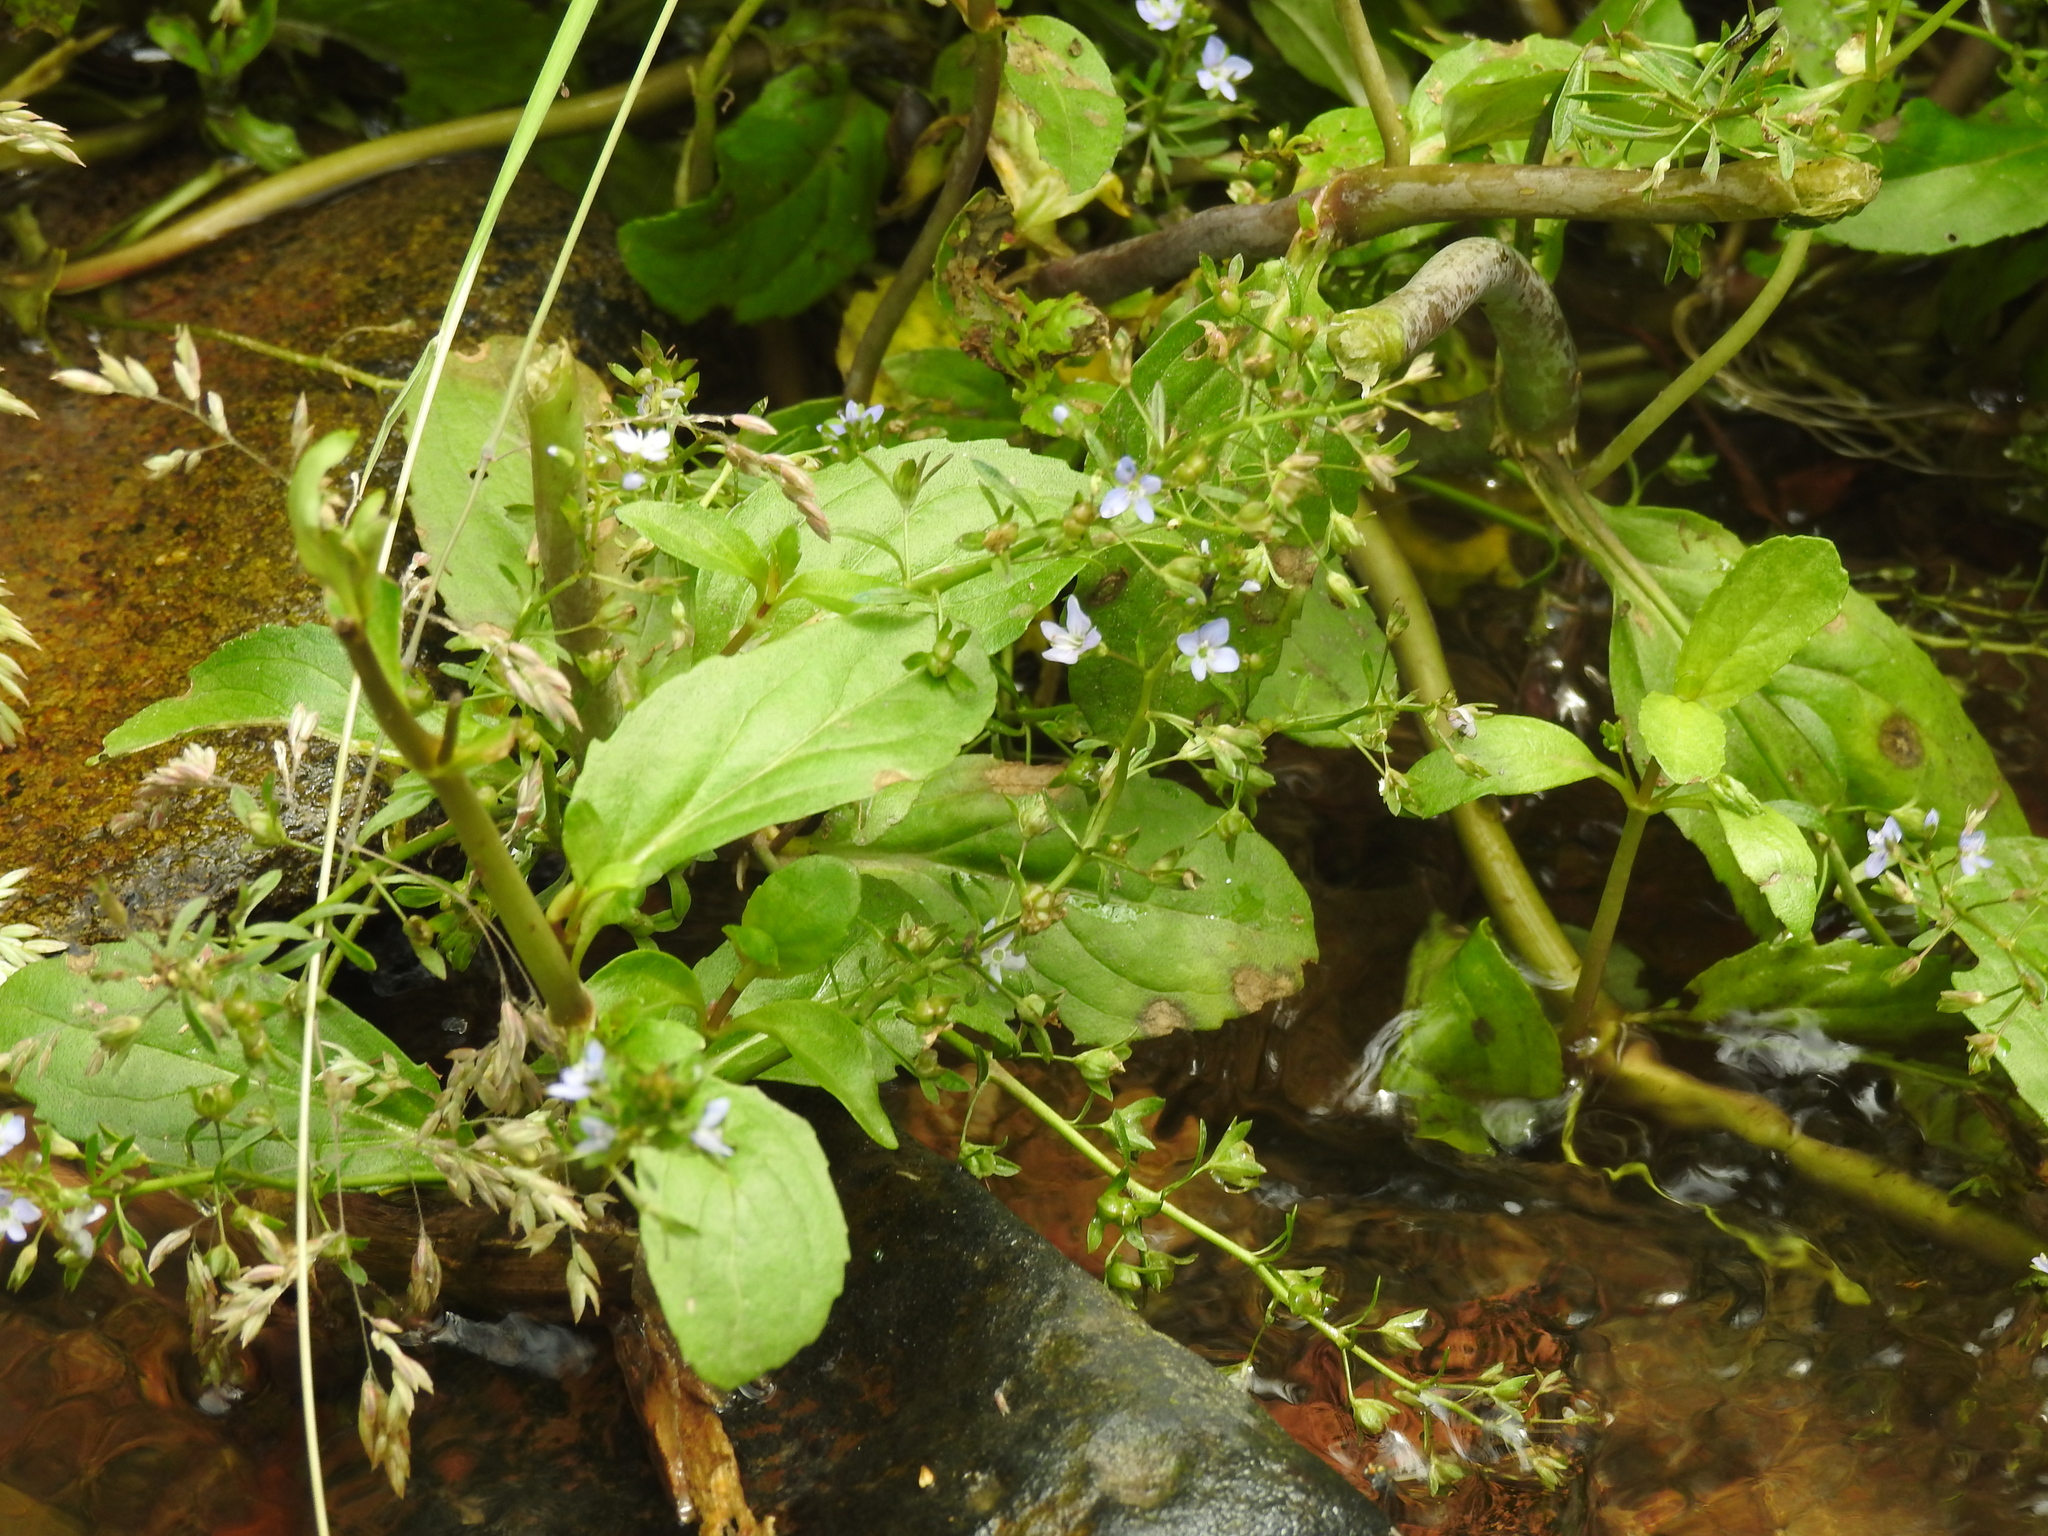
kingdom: Plantae
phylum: Tracheophyta
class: Magnoliopsida
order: Lamiales
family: Plantaginaceae
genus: Veronica
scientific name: Veronica beccabunga
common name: Brooklime
